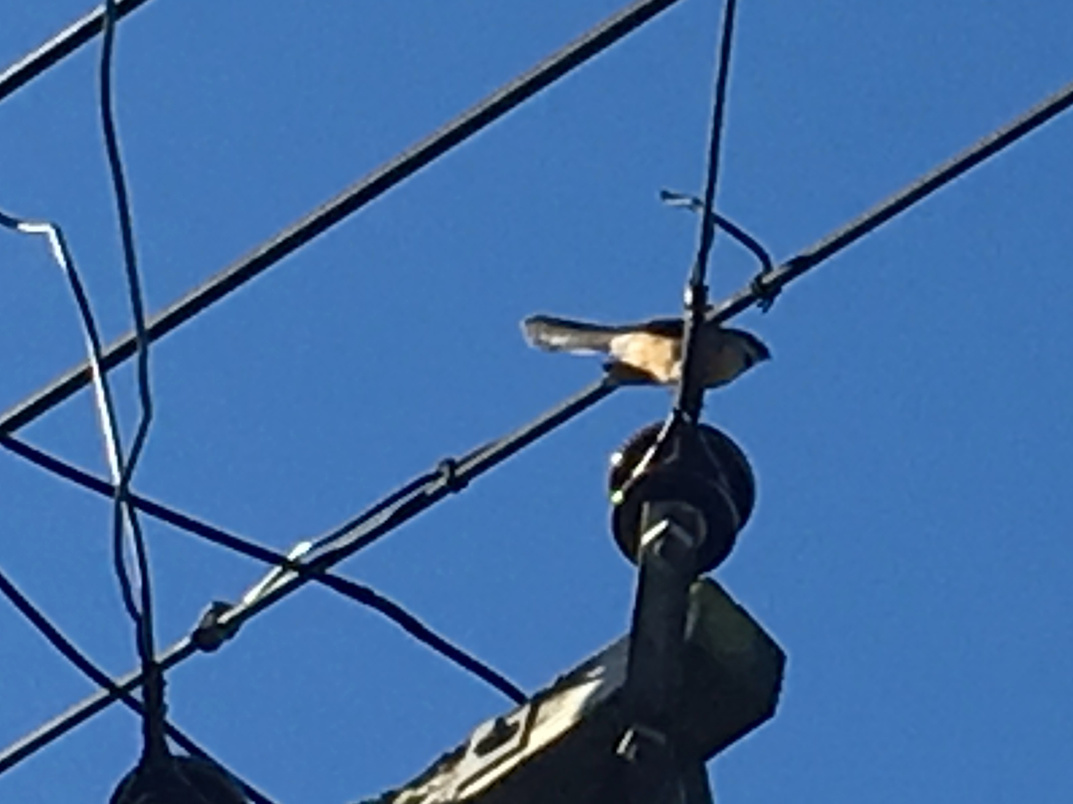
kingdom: Animalia
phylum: Chordata
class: Aves
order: Passeriformes
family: Rhipiduridae
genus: Rhipidura
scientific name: Rhipidura fuliginosa
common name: New zealand fantail
